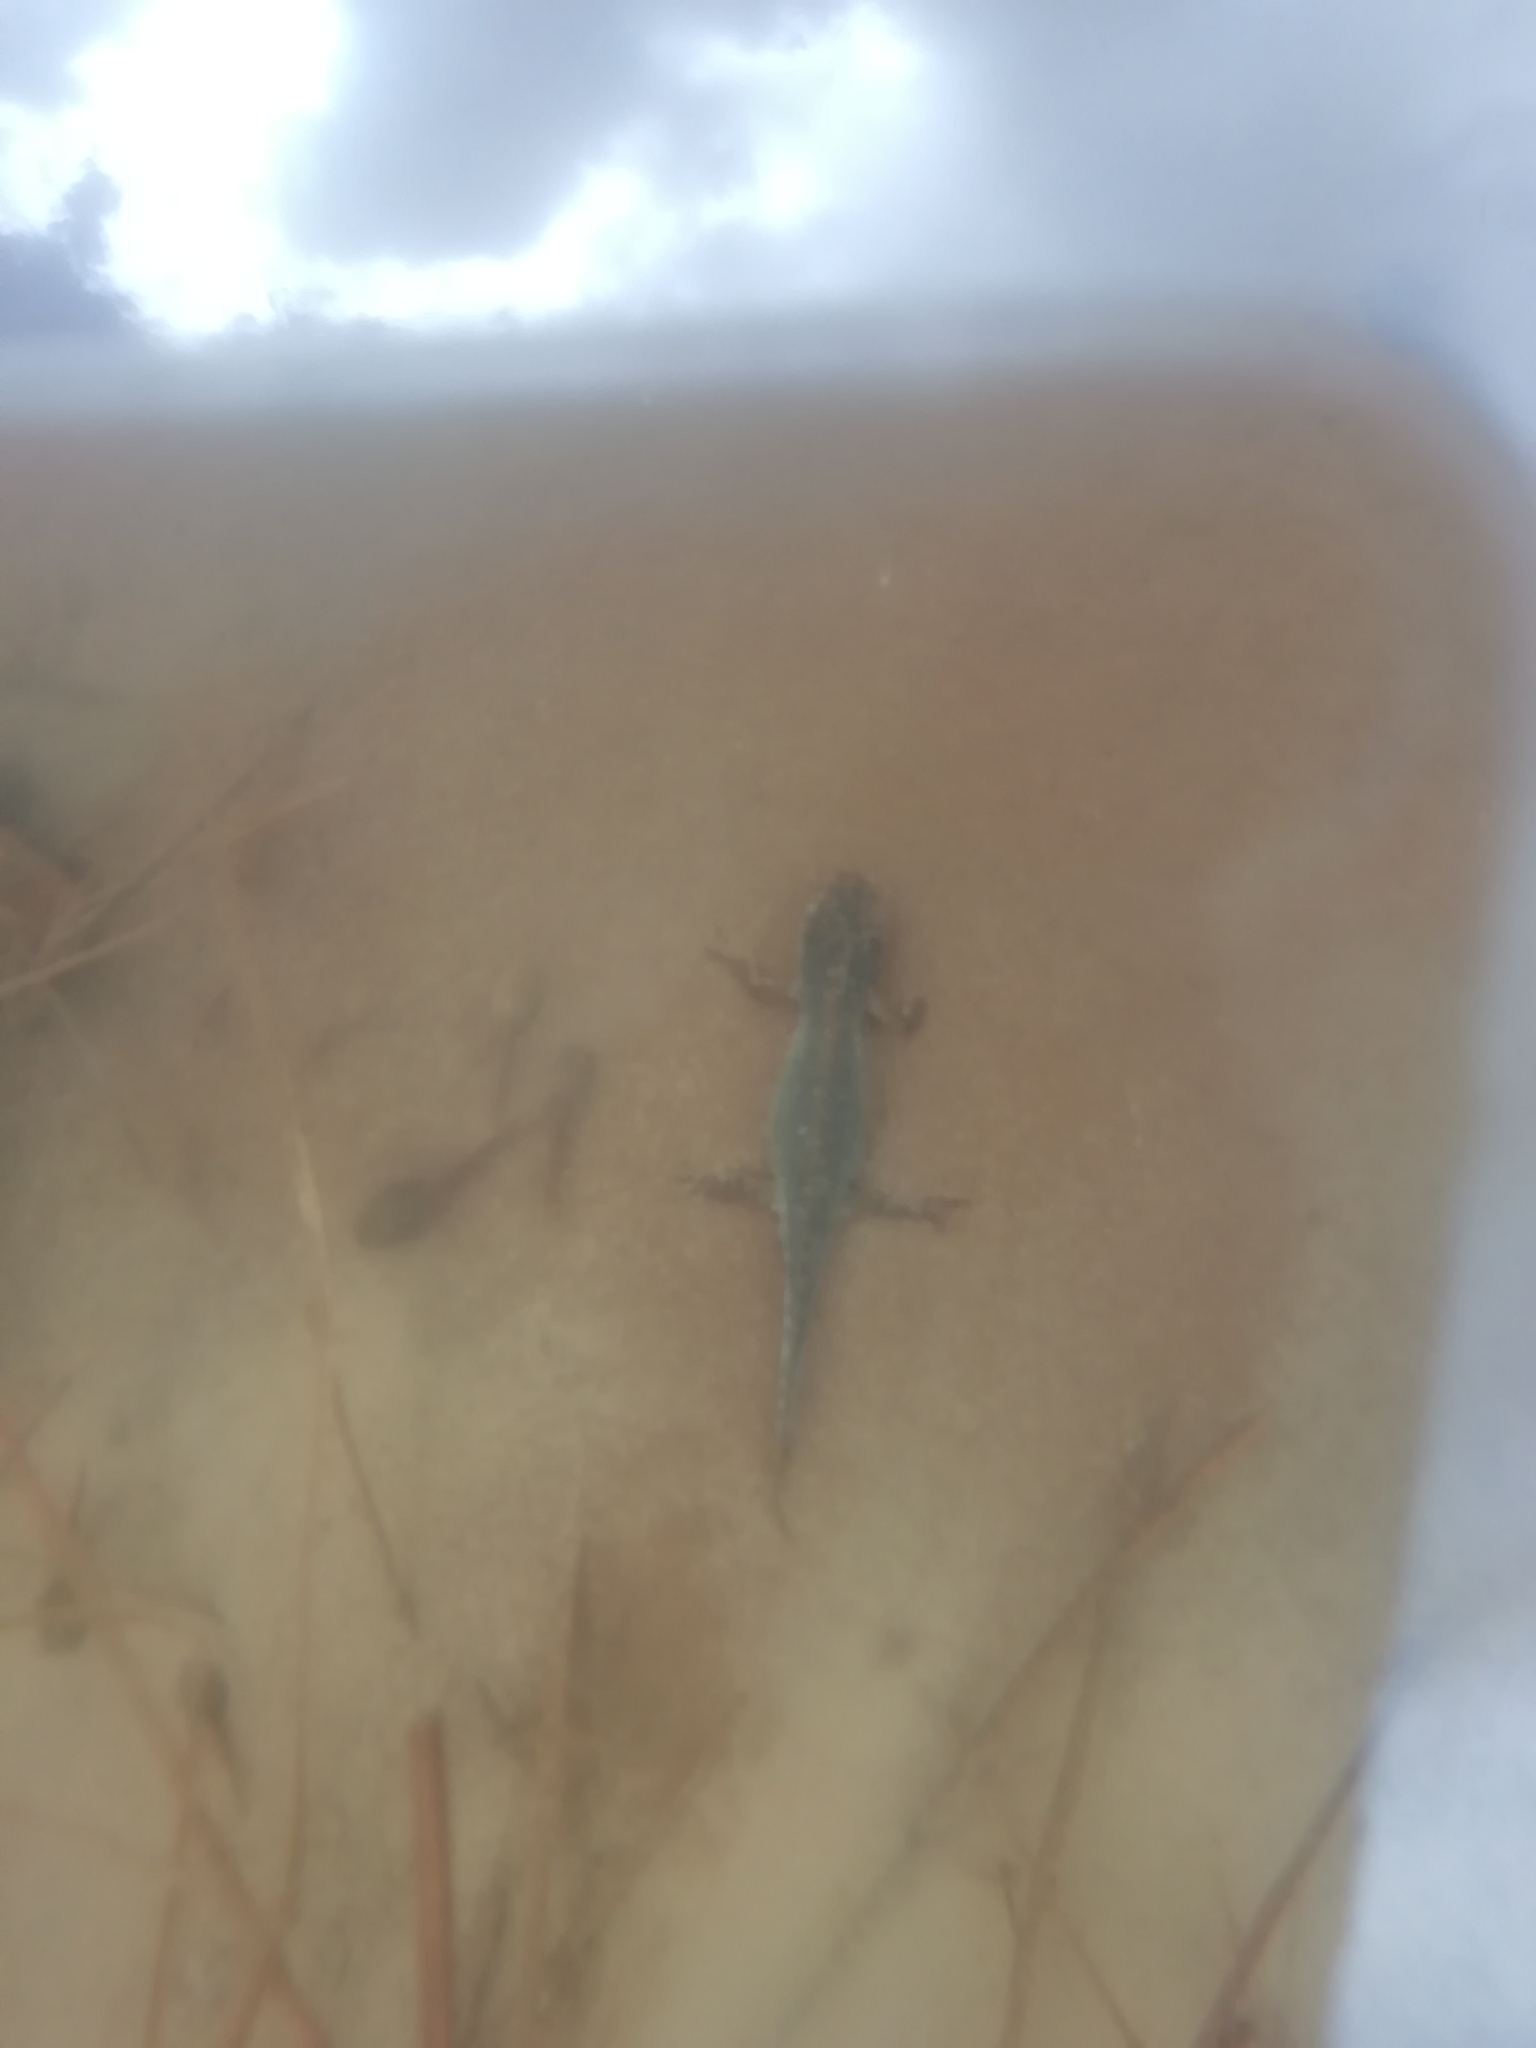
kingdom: Animalia
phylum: Chordata
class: Amphibia
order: Caudata
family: Salamandridae
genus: Ichthyosaura
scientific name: Ichthyosaura alpestris
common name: Alpine newt
